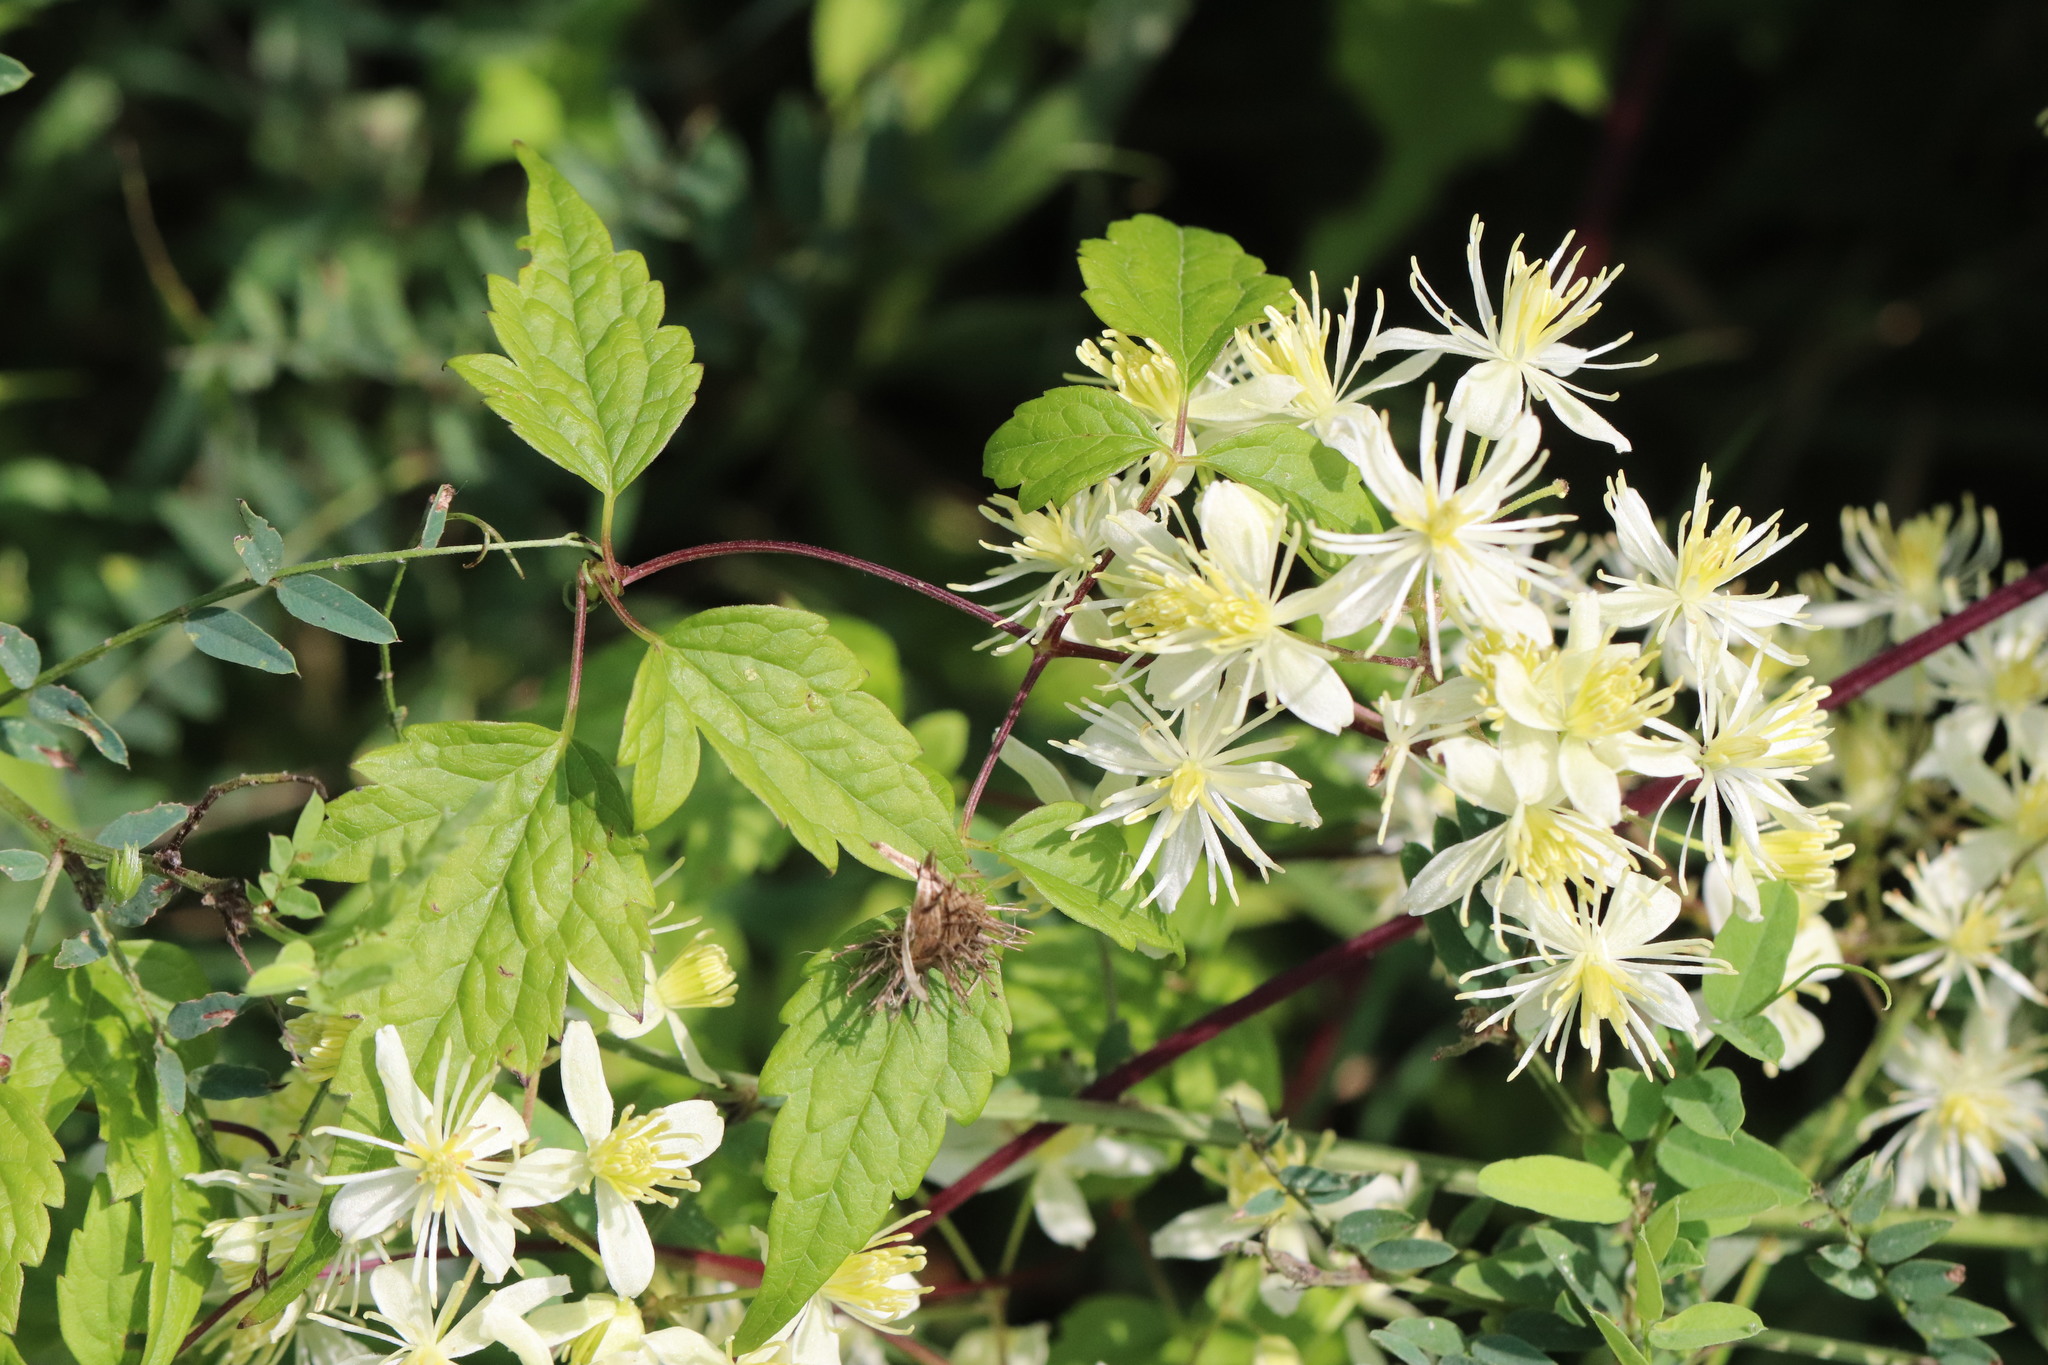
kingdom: Plantae
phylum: Tracheophyta
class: Magnoliopsida
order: Ranunculales
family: Ranunculaceae
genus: Clematis
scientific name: Clematis brevicaudata
